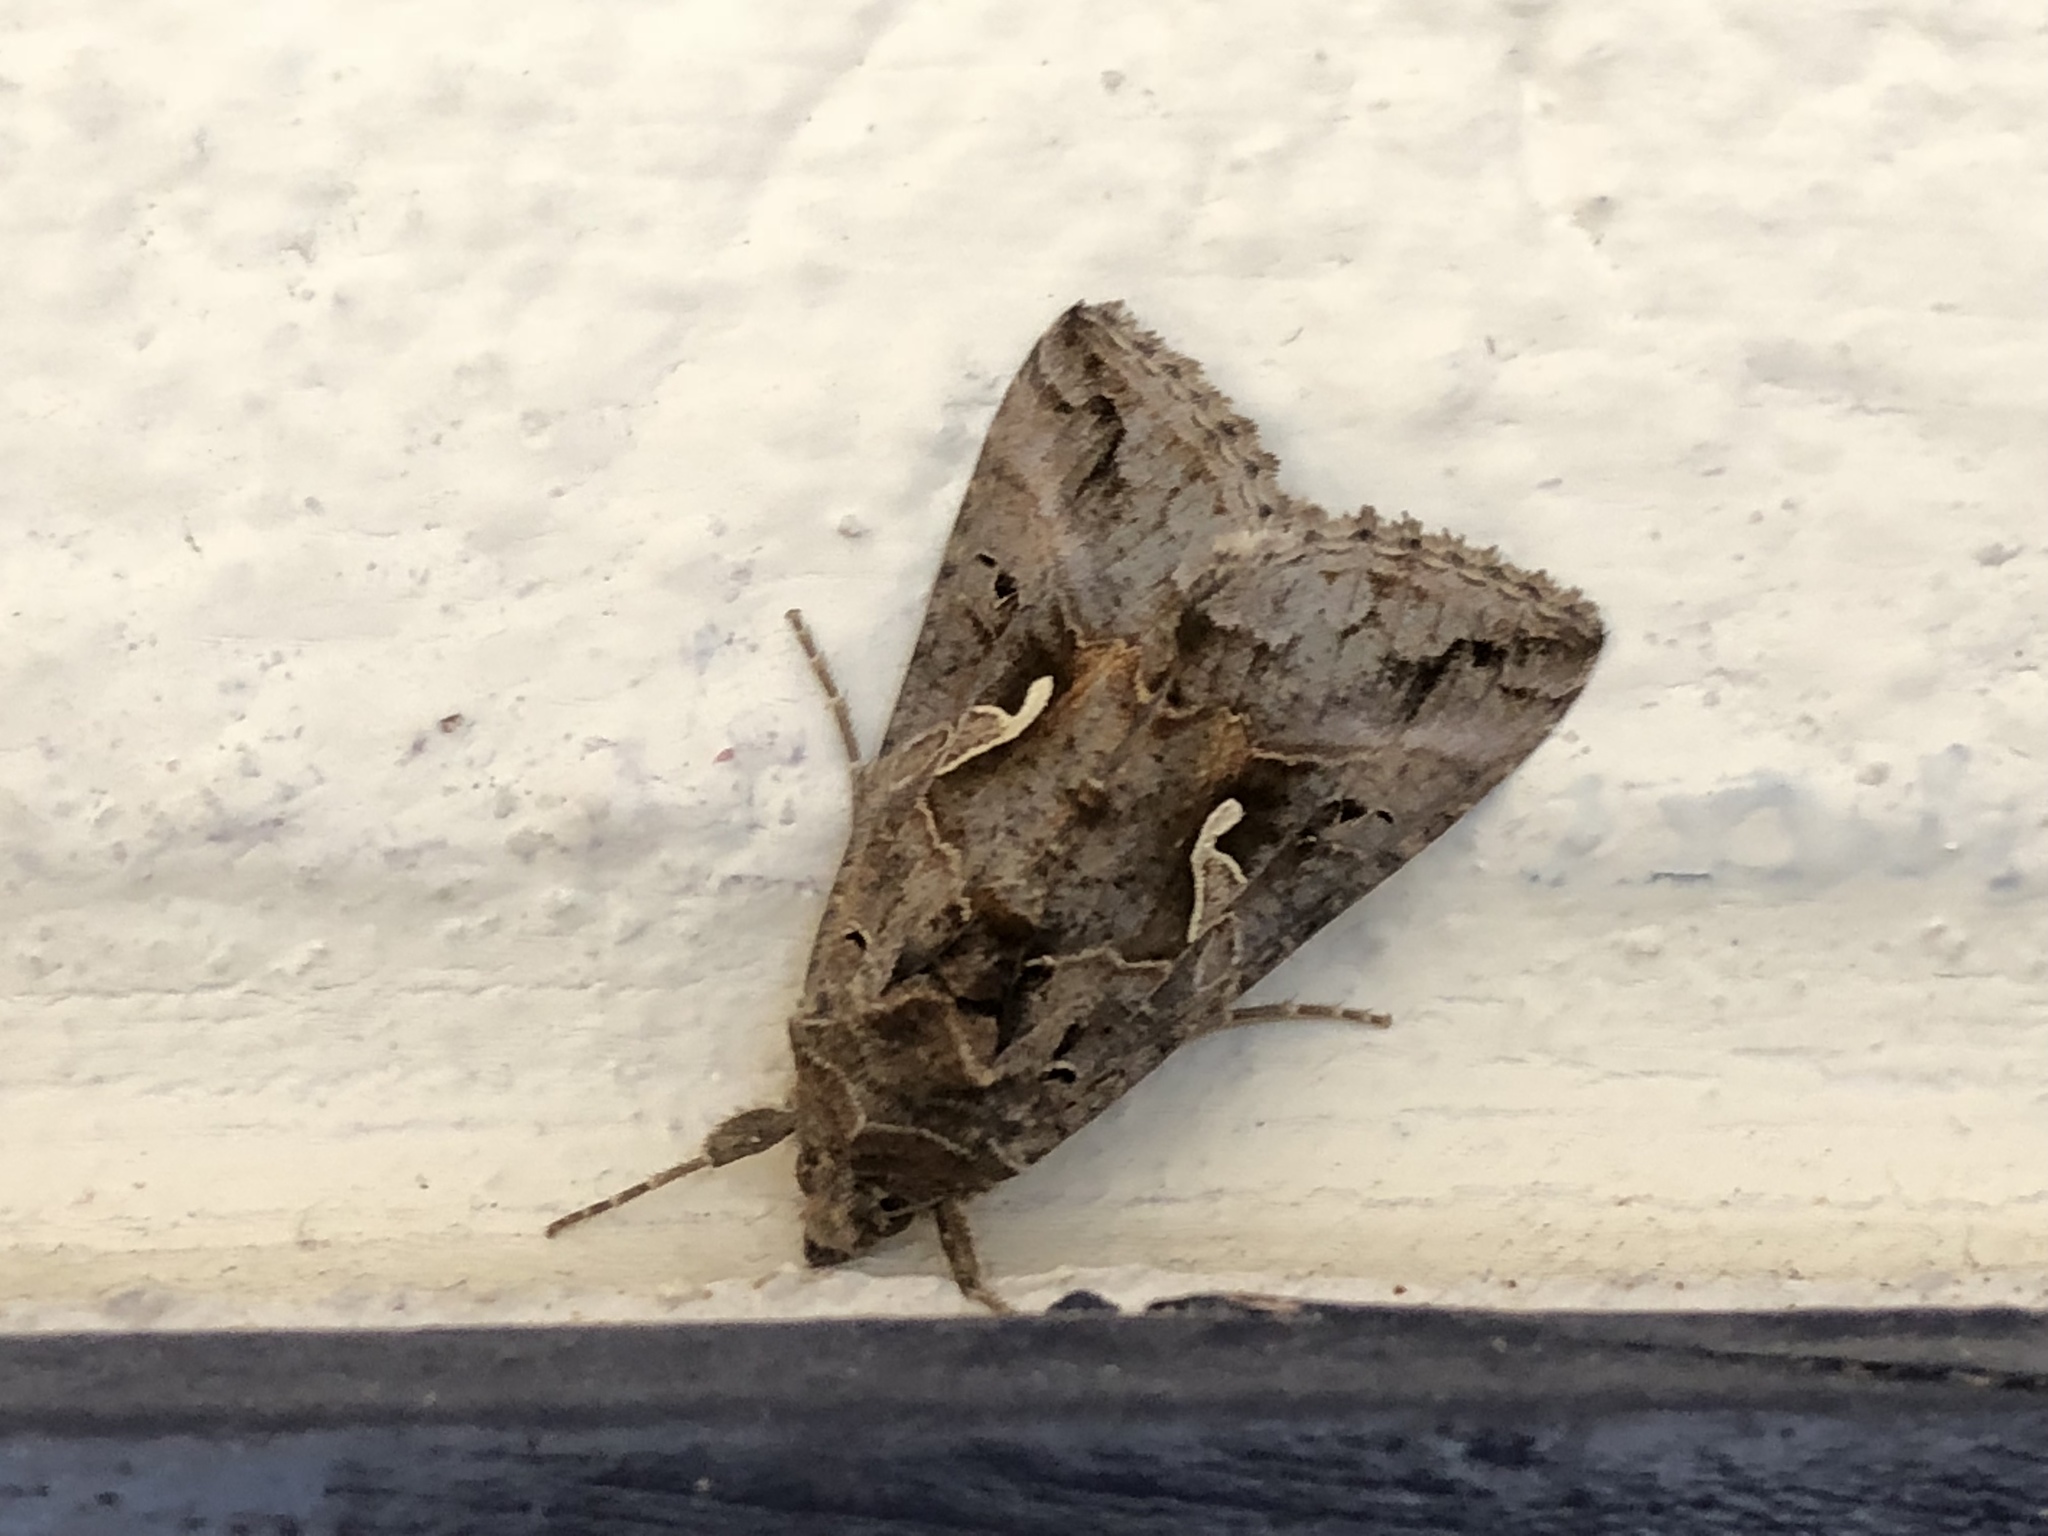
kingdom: Animalia
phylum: Arthropoda
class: Insecta
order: Lepidoptera
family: Noctuidae
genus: Autographa
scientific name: Autographa gamma
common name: Silver y
